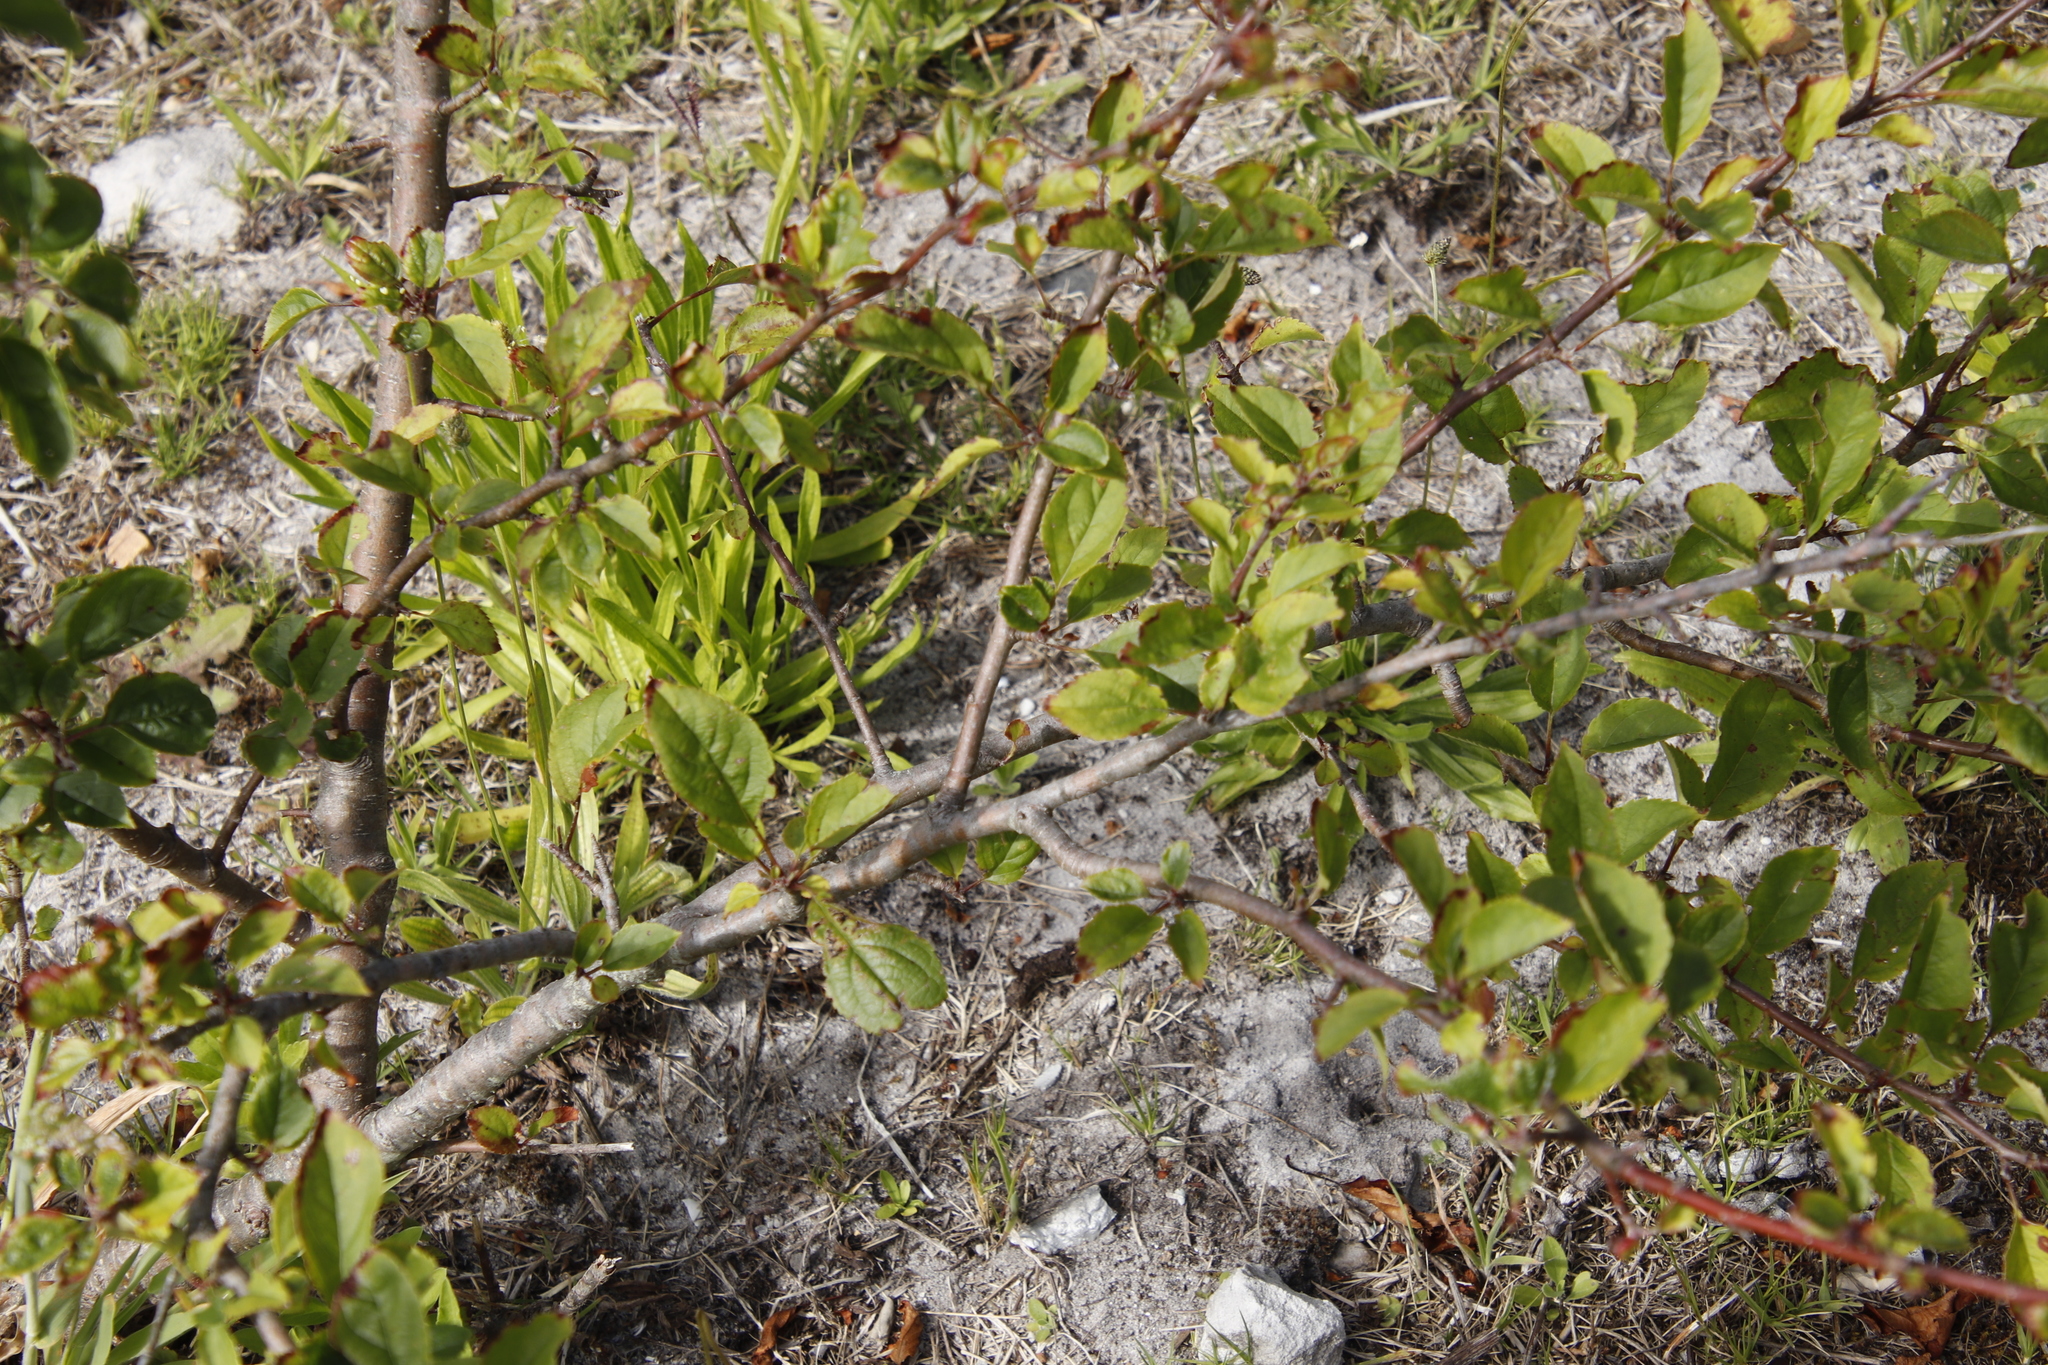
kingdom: Plantae
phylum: Tracheophyta
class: Magnoliopsida
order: Rosales
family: Rosaceae
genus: Malus
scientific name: Malus domestica
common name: Apple
